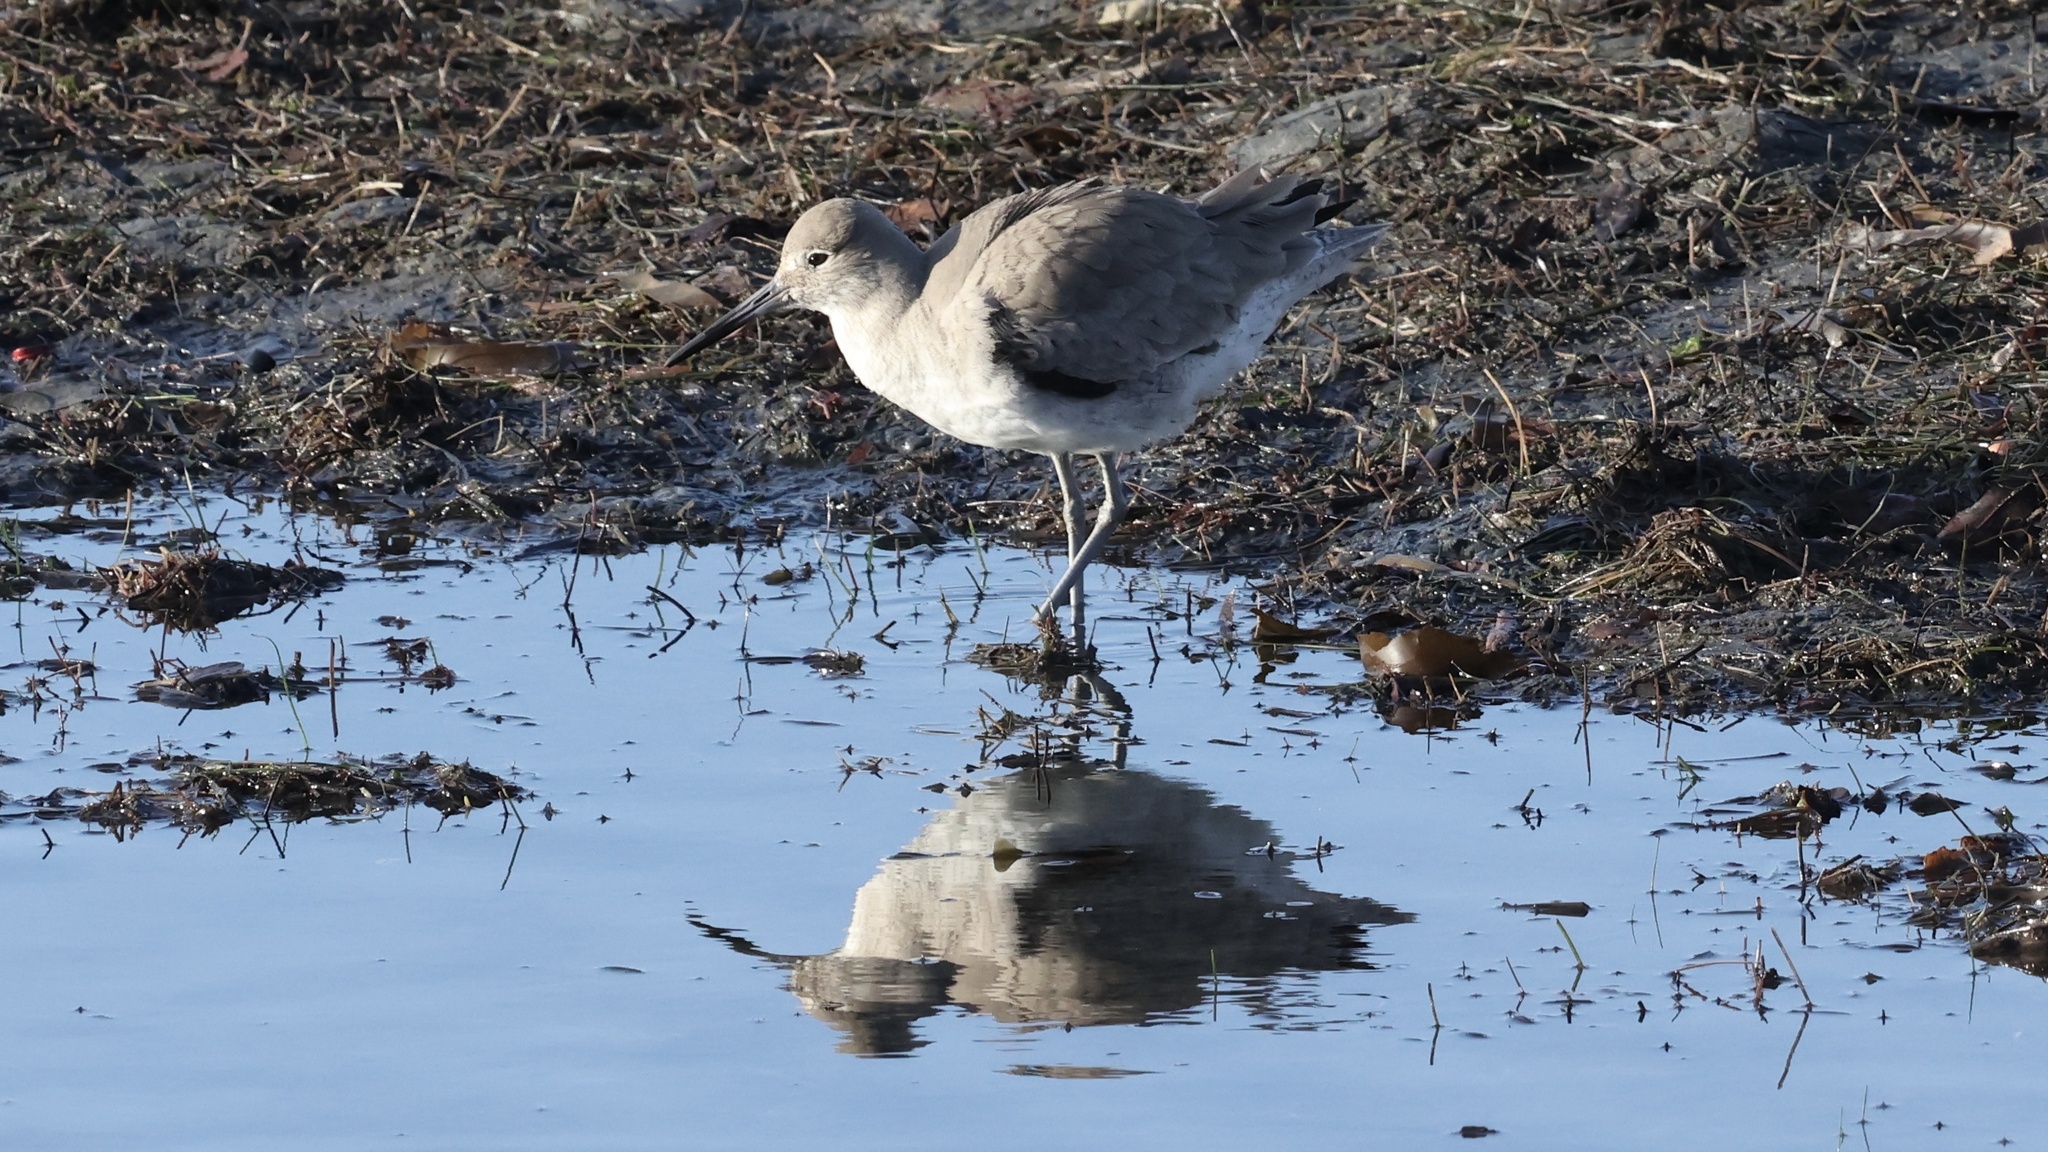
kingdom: Animalia
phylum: Chordata
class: Aves
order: Charadriiformes
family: Scolopacidae
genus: Tringa
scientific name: Tringa semipalmata
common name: Willet
